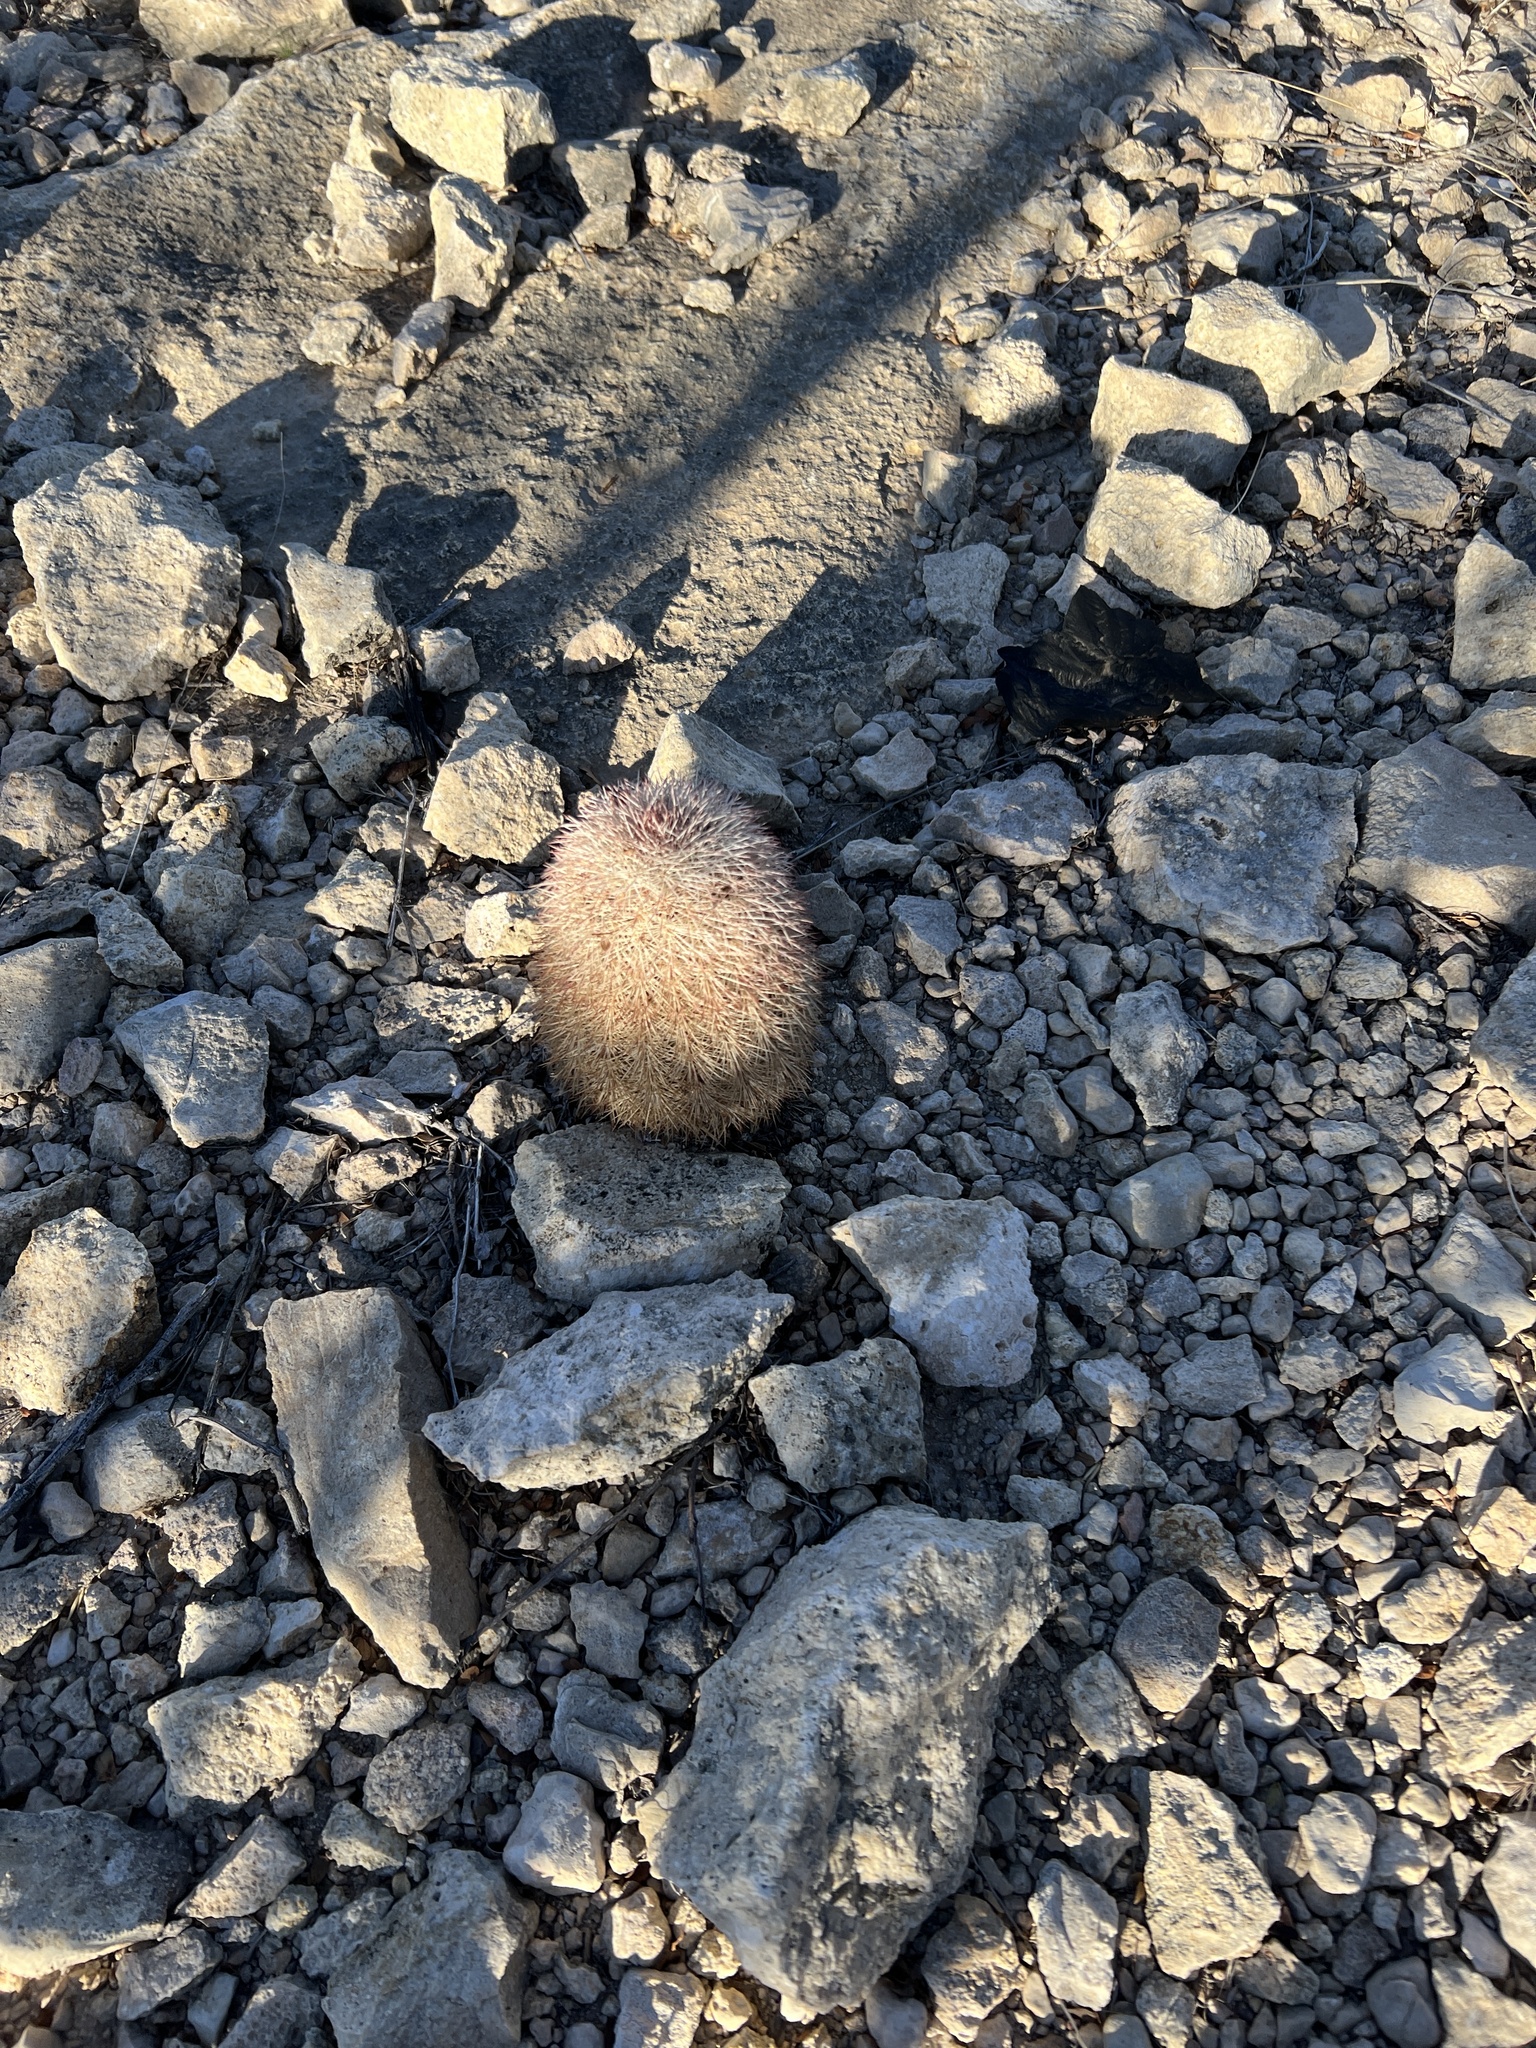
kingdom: Plantae
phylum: Tracheophyta
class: Magnoliopsida
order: Caryophyllales
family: Cactaceae
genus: Echinocereus
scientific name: Echinocereus dasyacanthus
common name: Spiny hedgehog cactus
